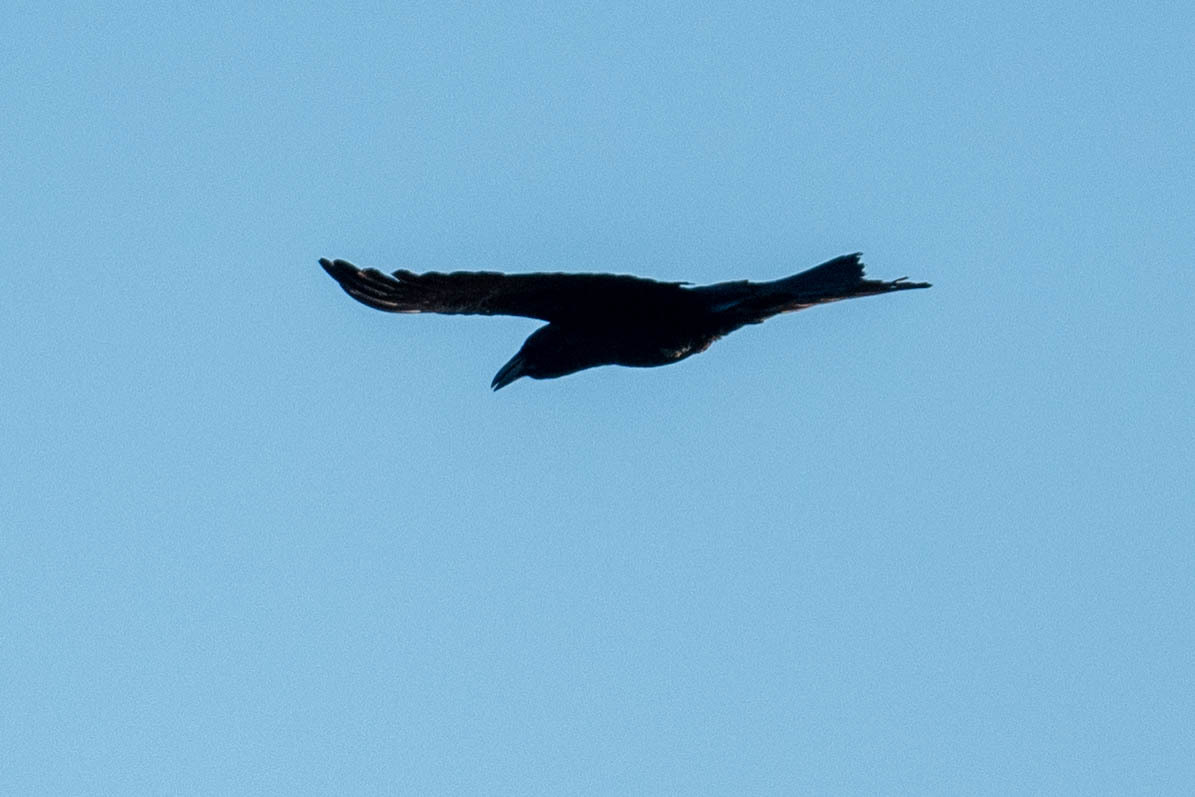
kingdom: Animalia
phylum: Chordata
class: Aves
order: Passeriformes
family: Corvidae
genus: Corvus
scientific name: Corvus corax
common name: Common raven
